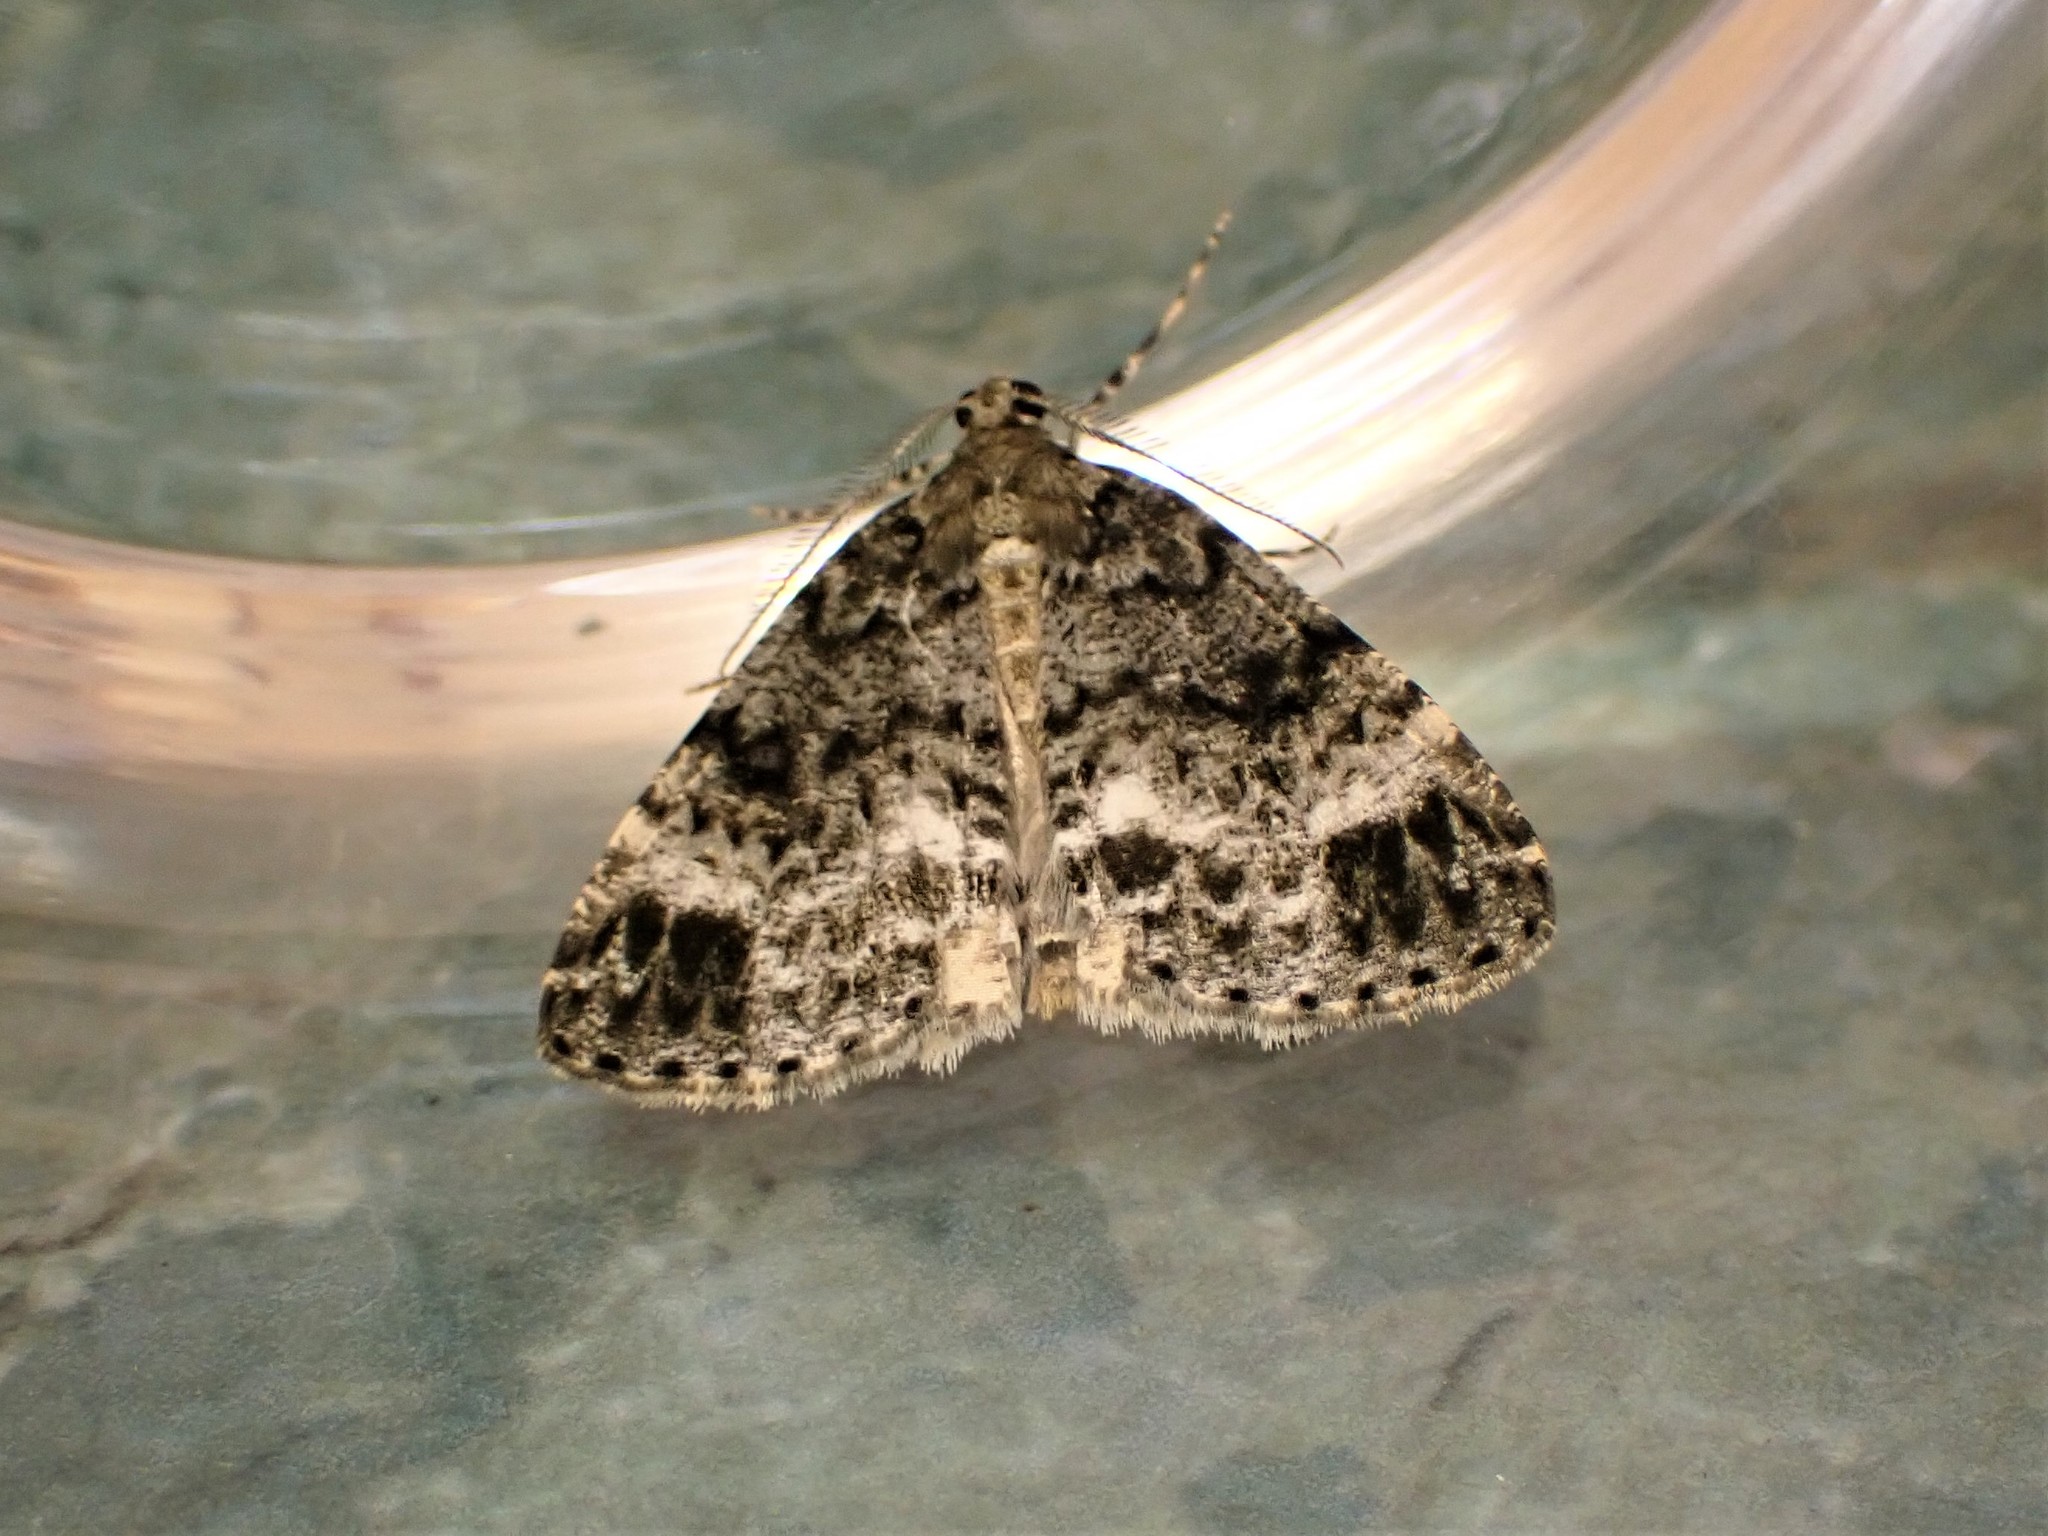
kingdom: Animalia
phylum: Arthropoda
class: Insecta
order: Lepidoptera
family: Geometridae
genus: Pseudocoremia
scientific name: Pseudocoremia indistincta
